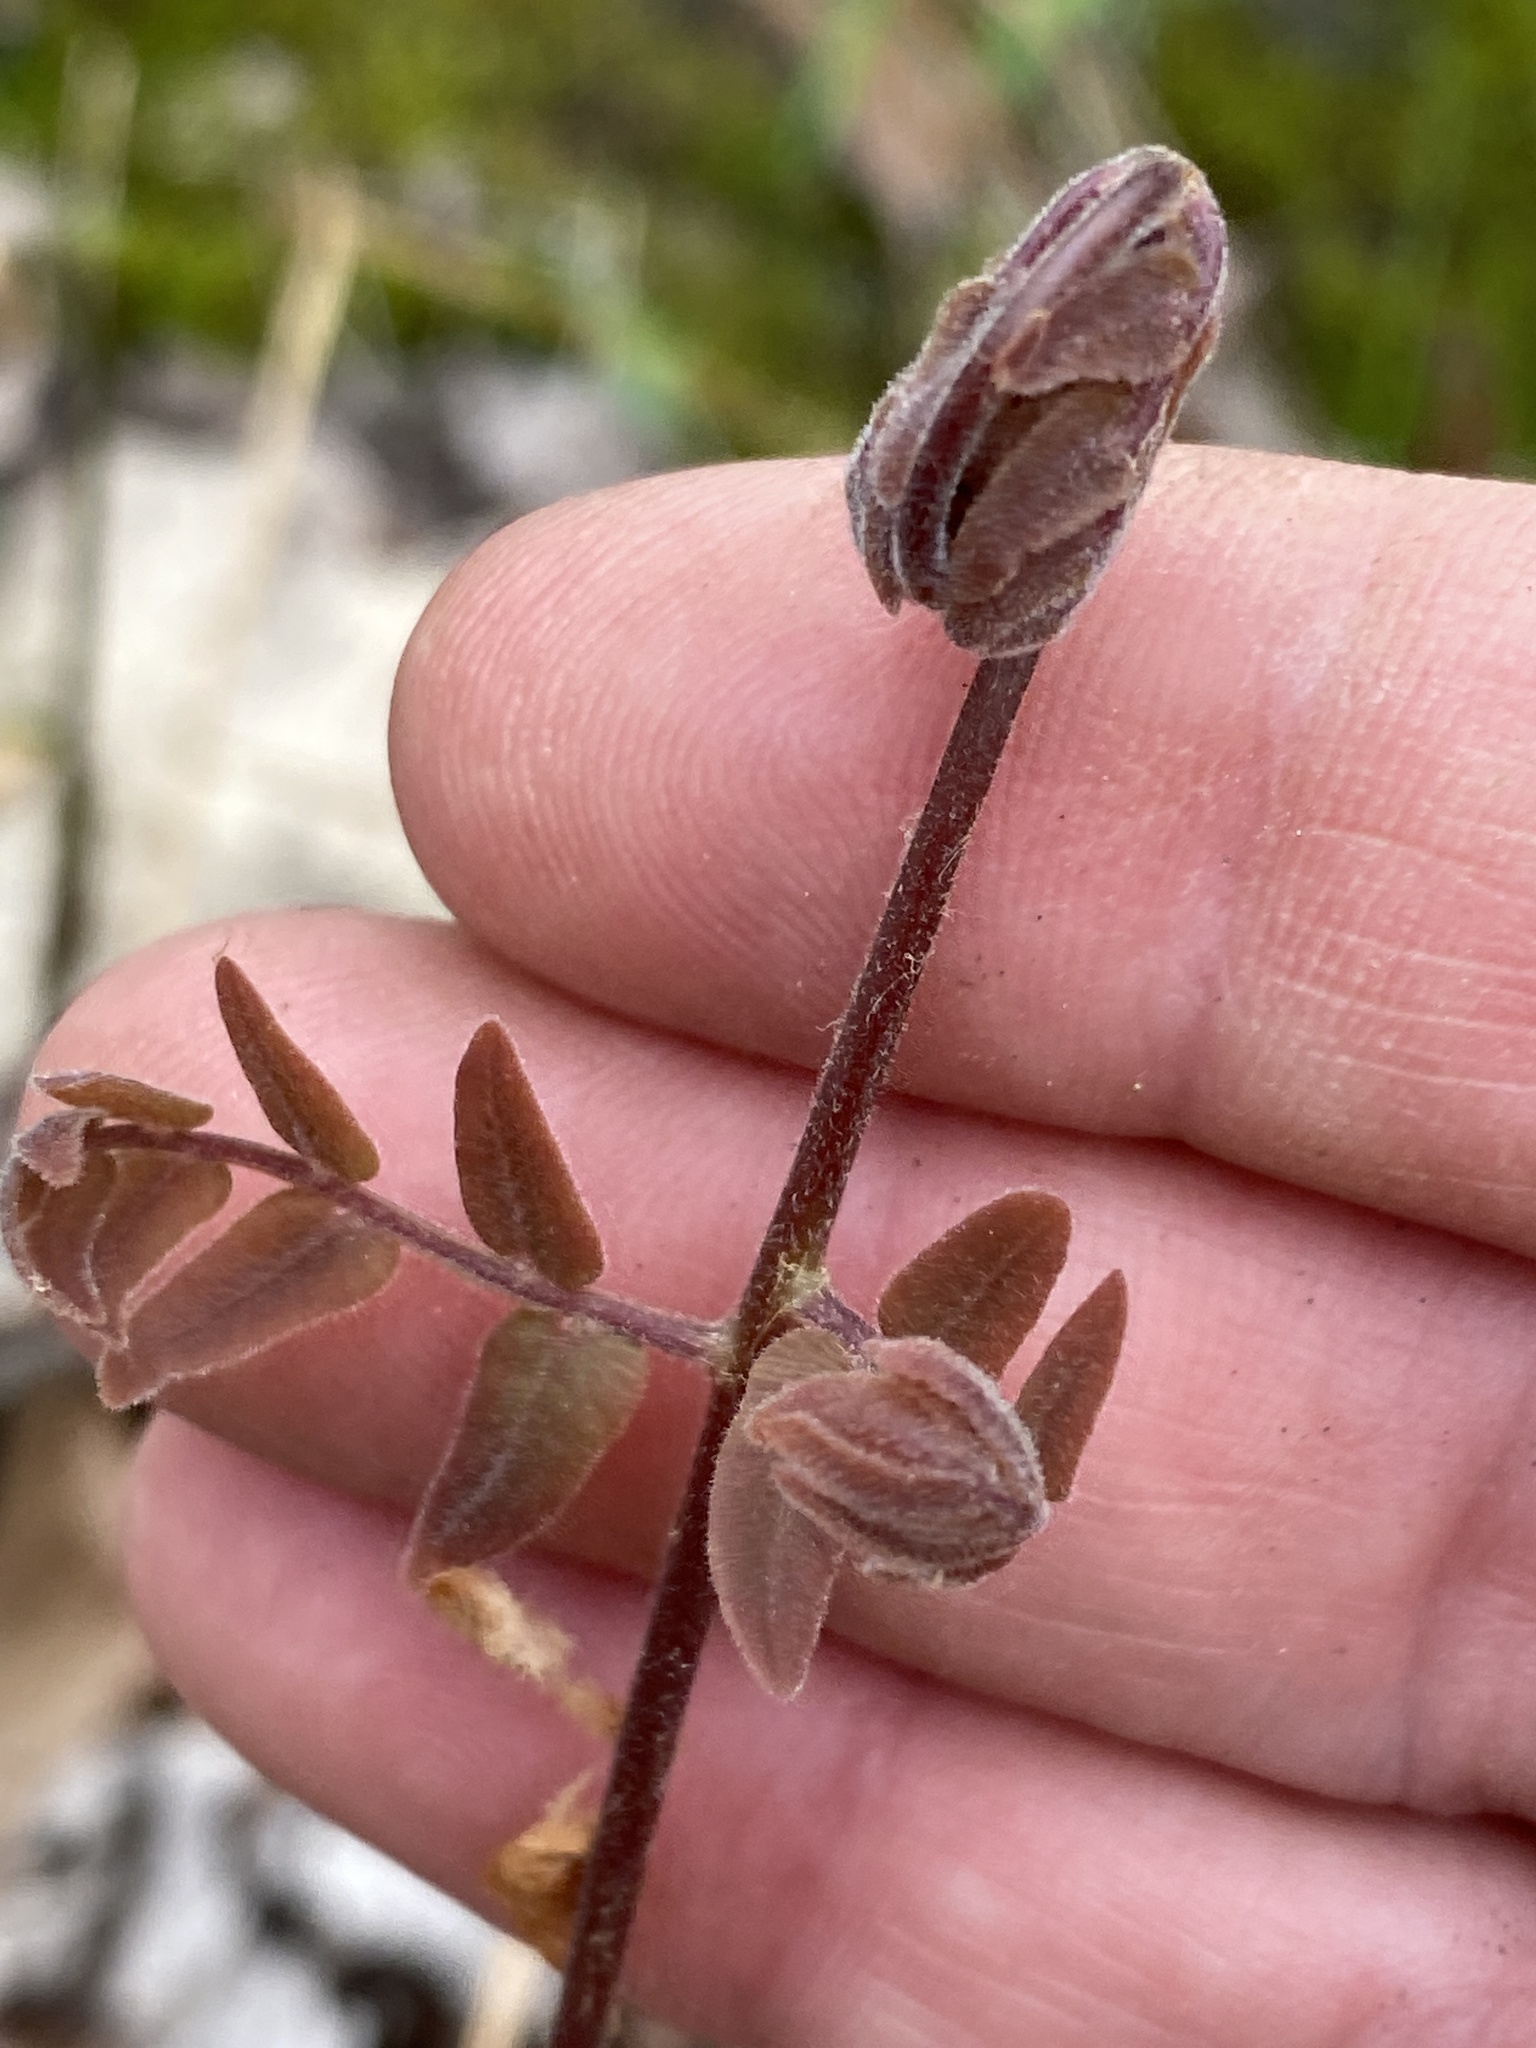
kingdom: Plantae
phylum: Tracheophyta
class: Polypodiopsida
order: Osmundales
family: Osmundaceae
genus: Osmunda
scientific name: Osmunda spectabilis
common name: American royal fern
